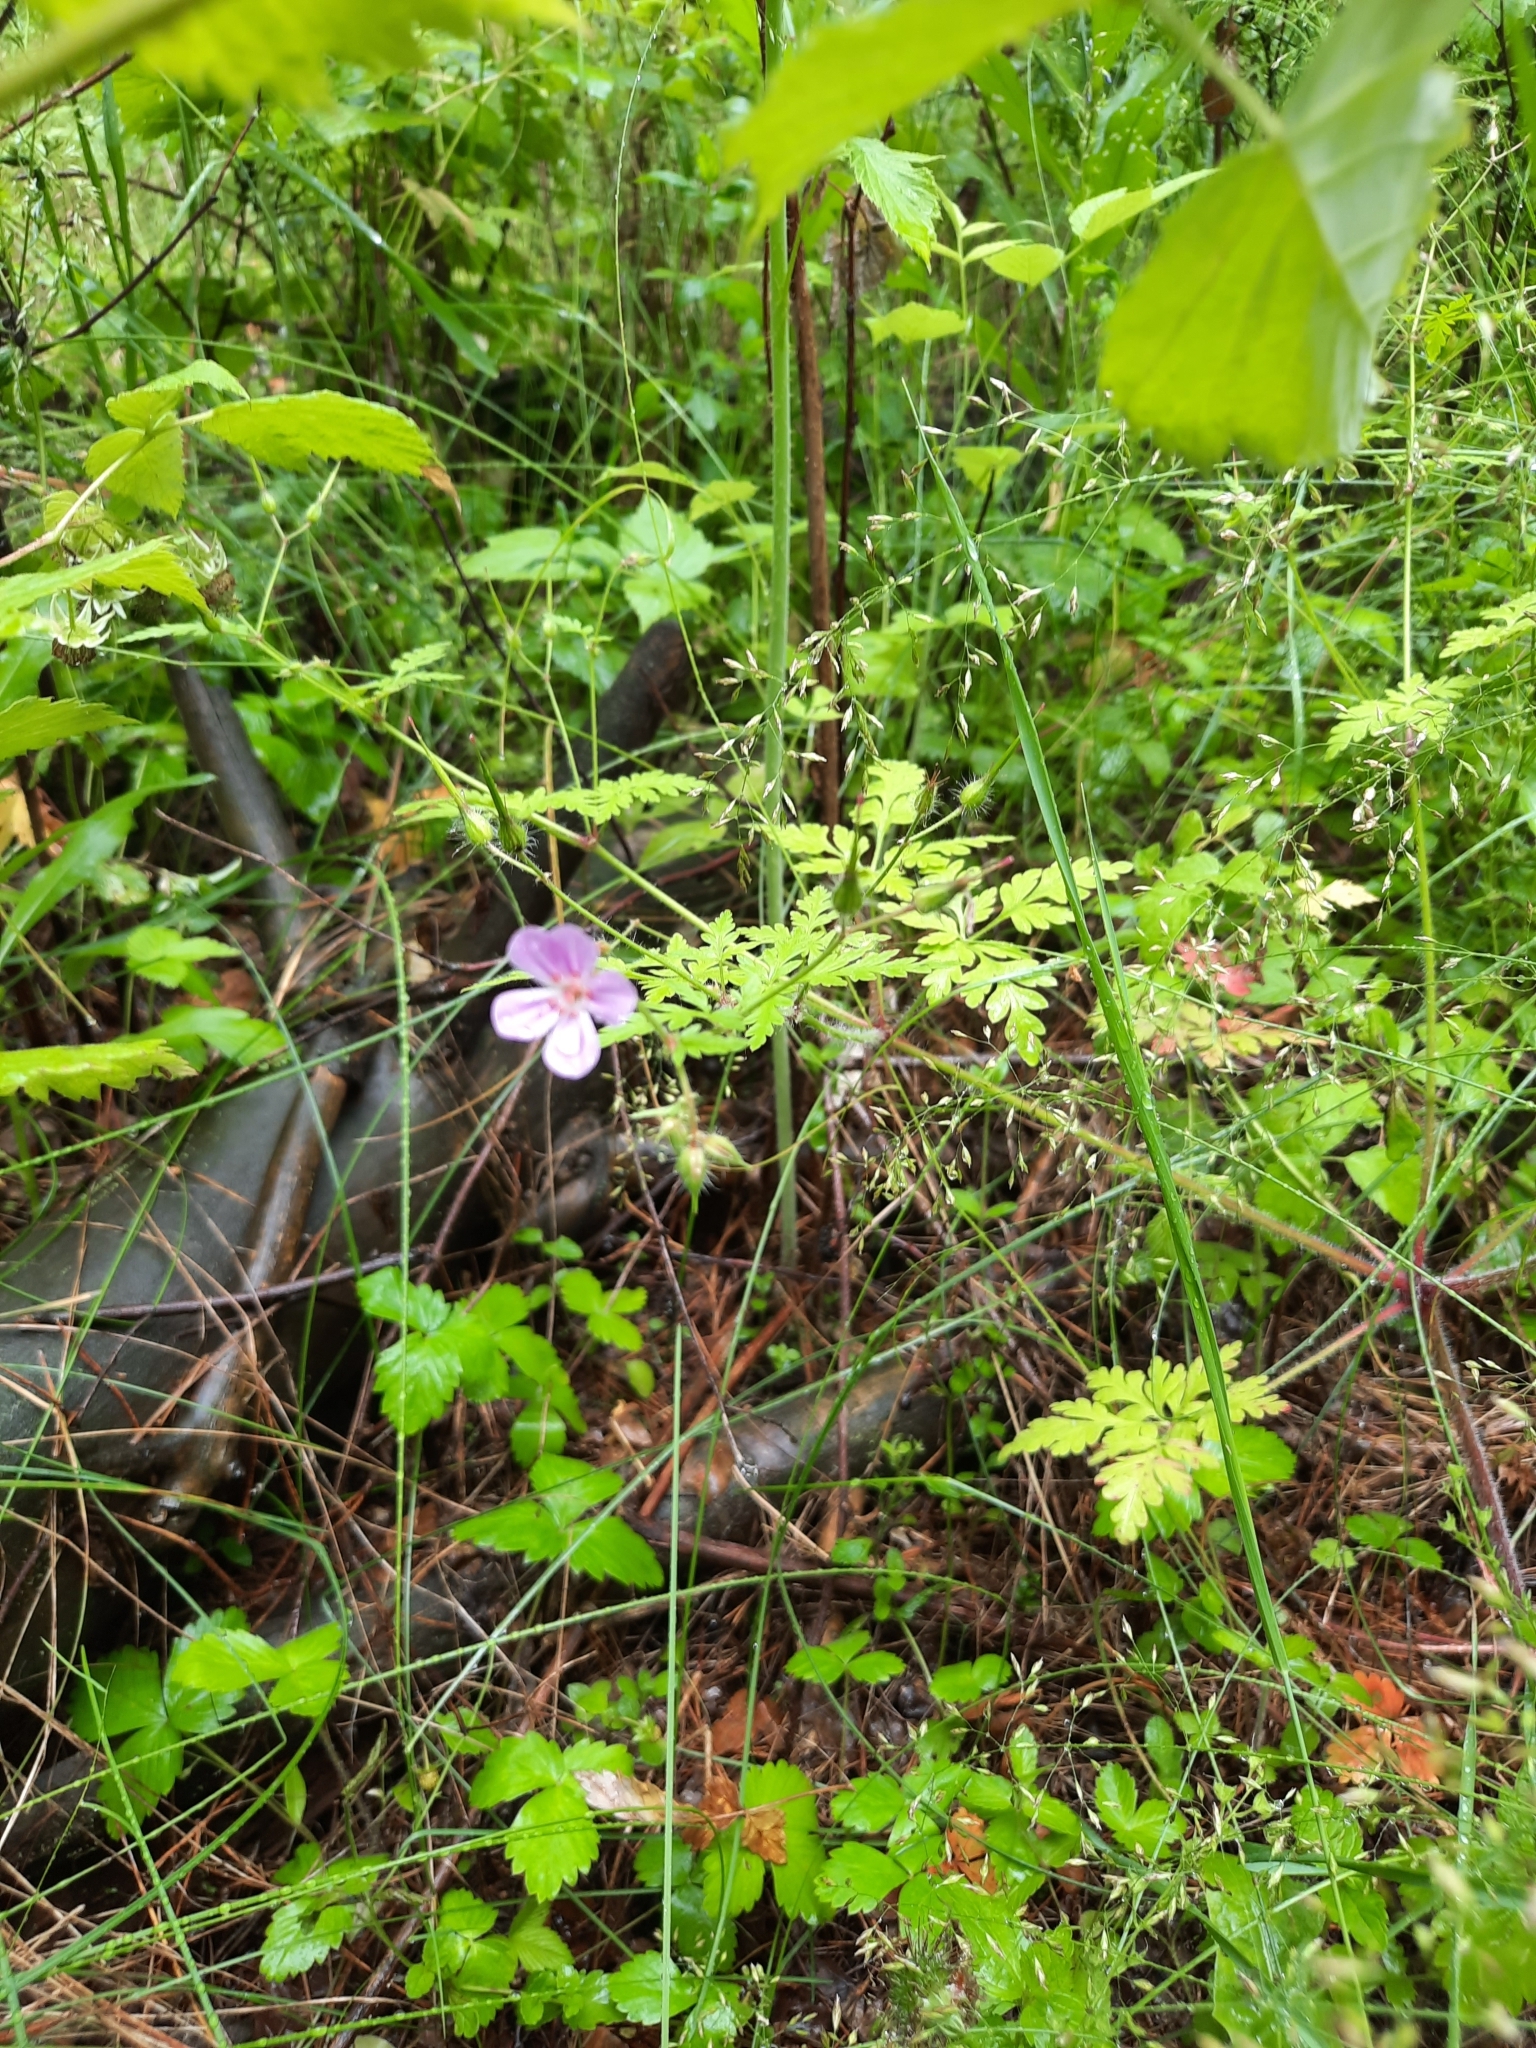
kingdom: Plantae
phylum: Tracheophyta
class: Magnoliopsida
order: Geraniales
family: Geraniaceae
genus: Geranium
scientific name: Geranium robertianum
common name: Herb-robert
